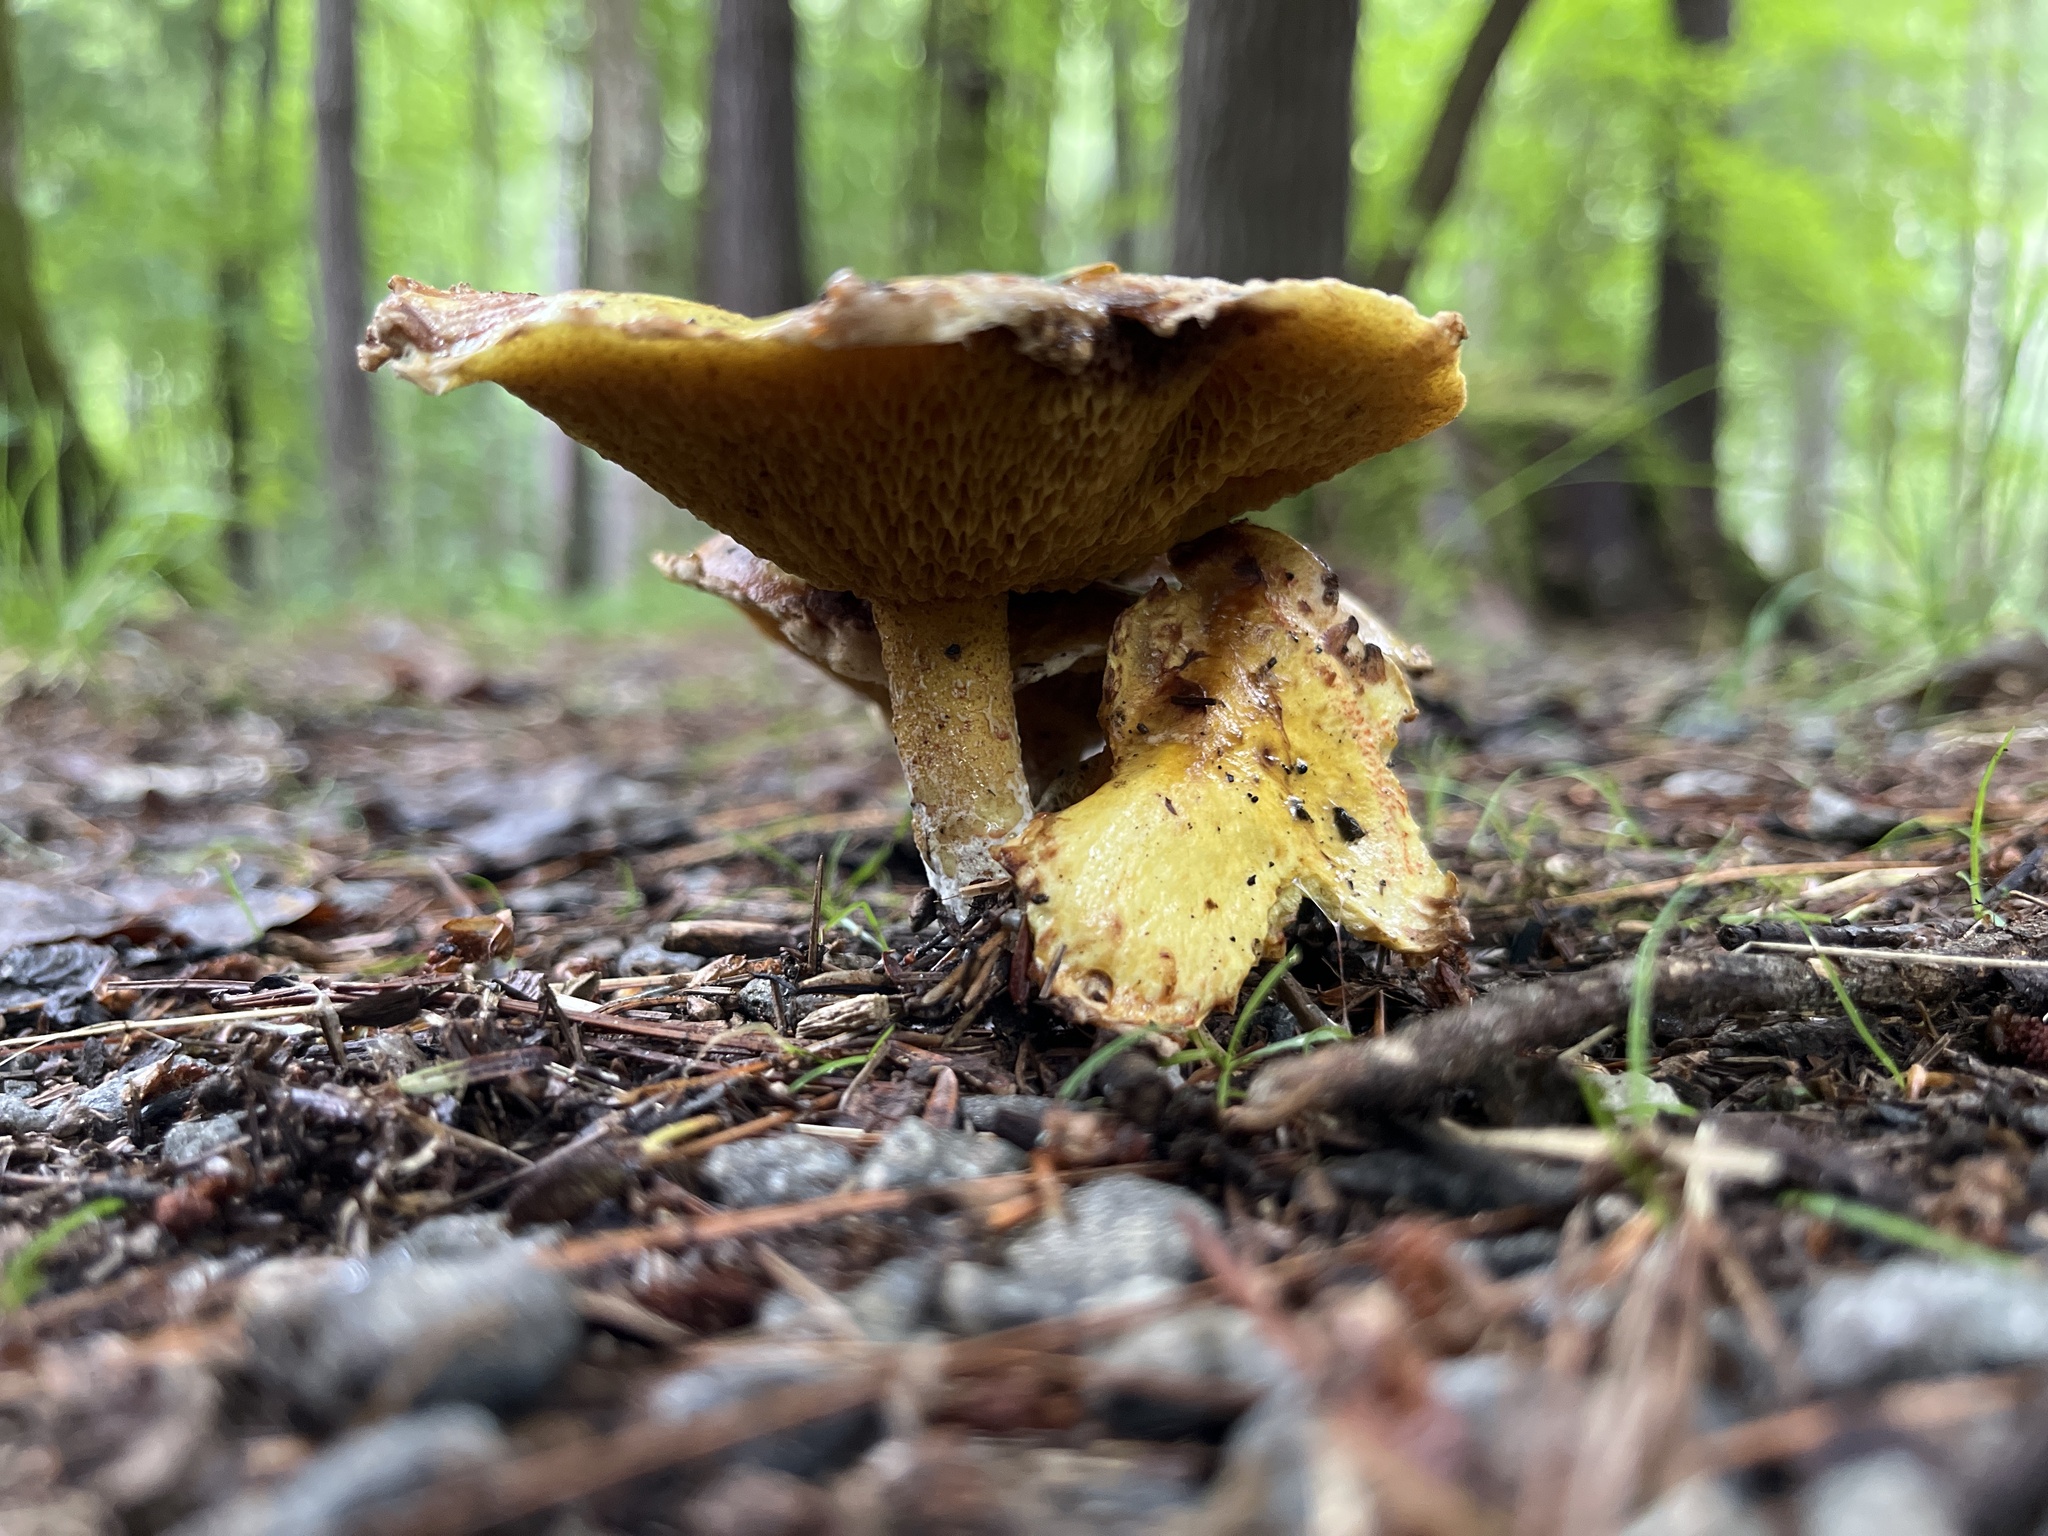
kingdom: Fungi
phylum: Basidiomycota
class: Agaricomycetes
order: Boletales
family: Suillaceae
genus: Suillus
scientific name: Suillus americanus
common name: Chicken fat mushroom
